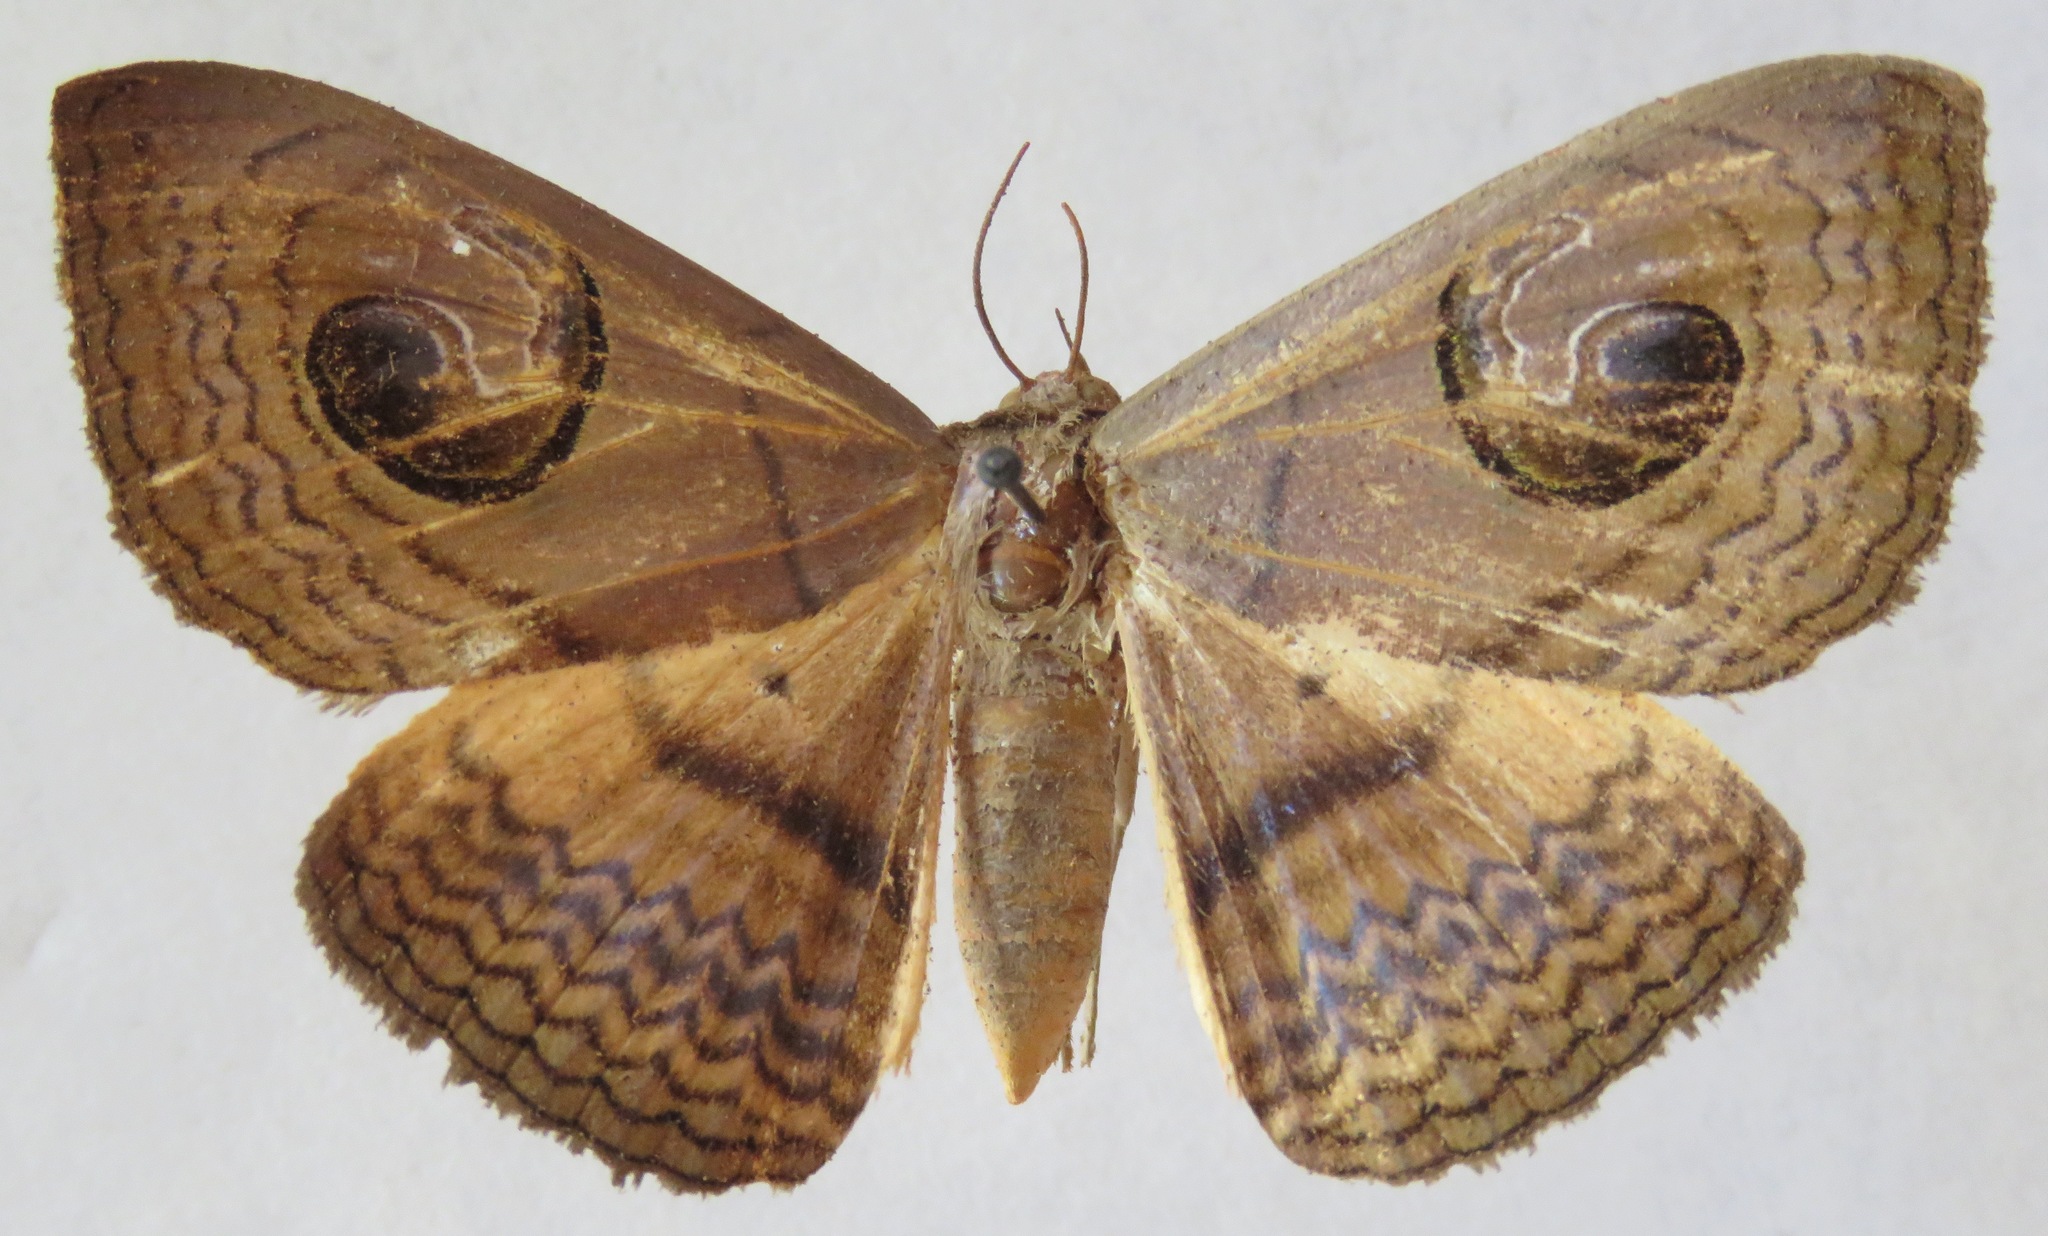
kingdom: Animalia
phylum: Arthropoda
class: Insecta
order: Lepidoptera
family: Erebidae
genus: Spirama
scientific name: Spirama glaucescens
